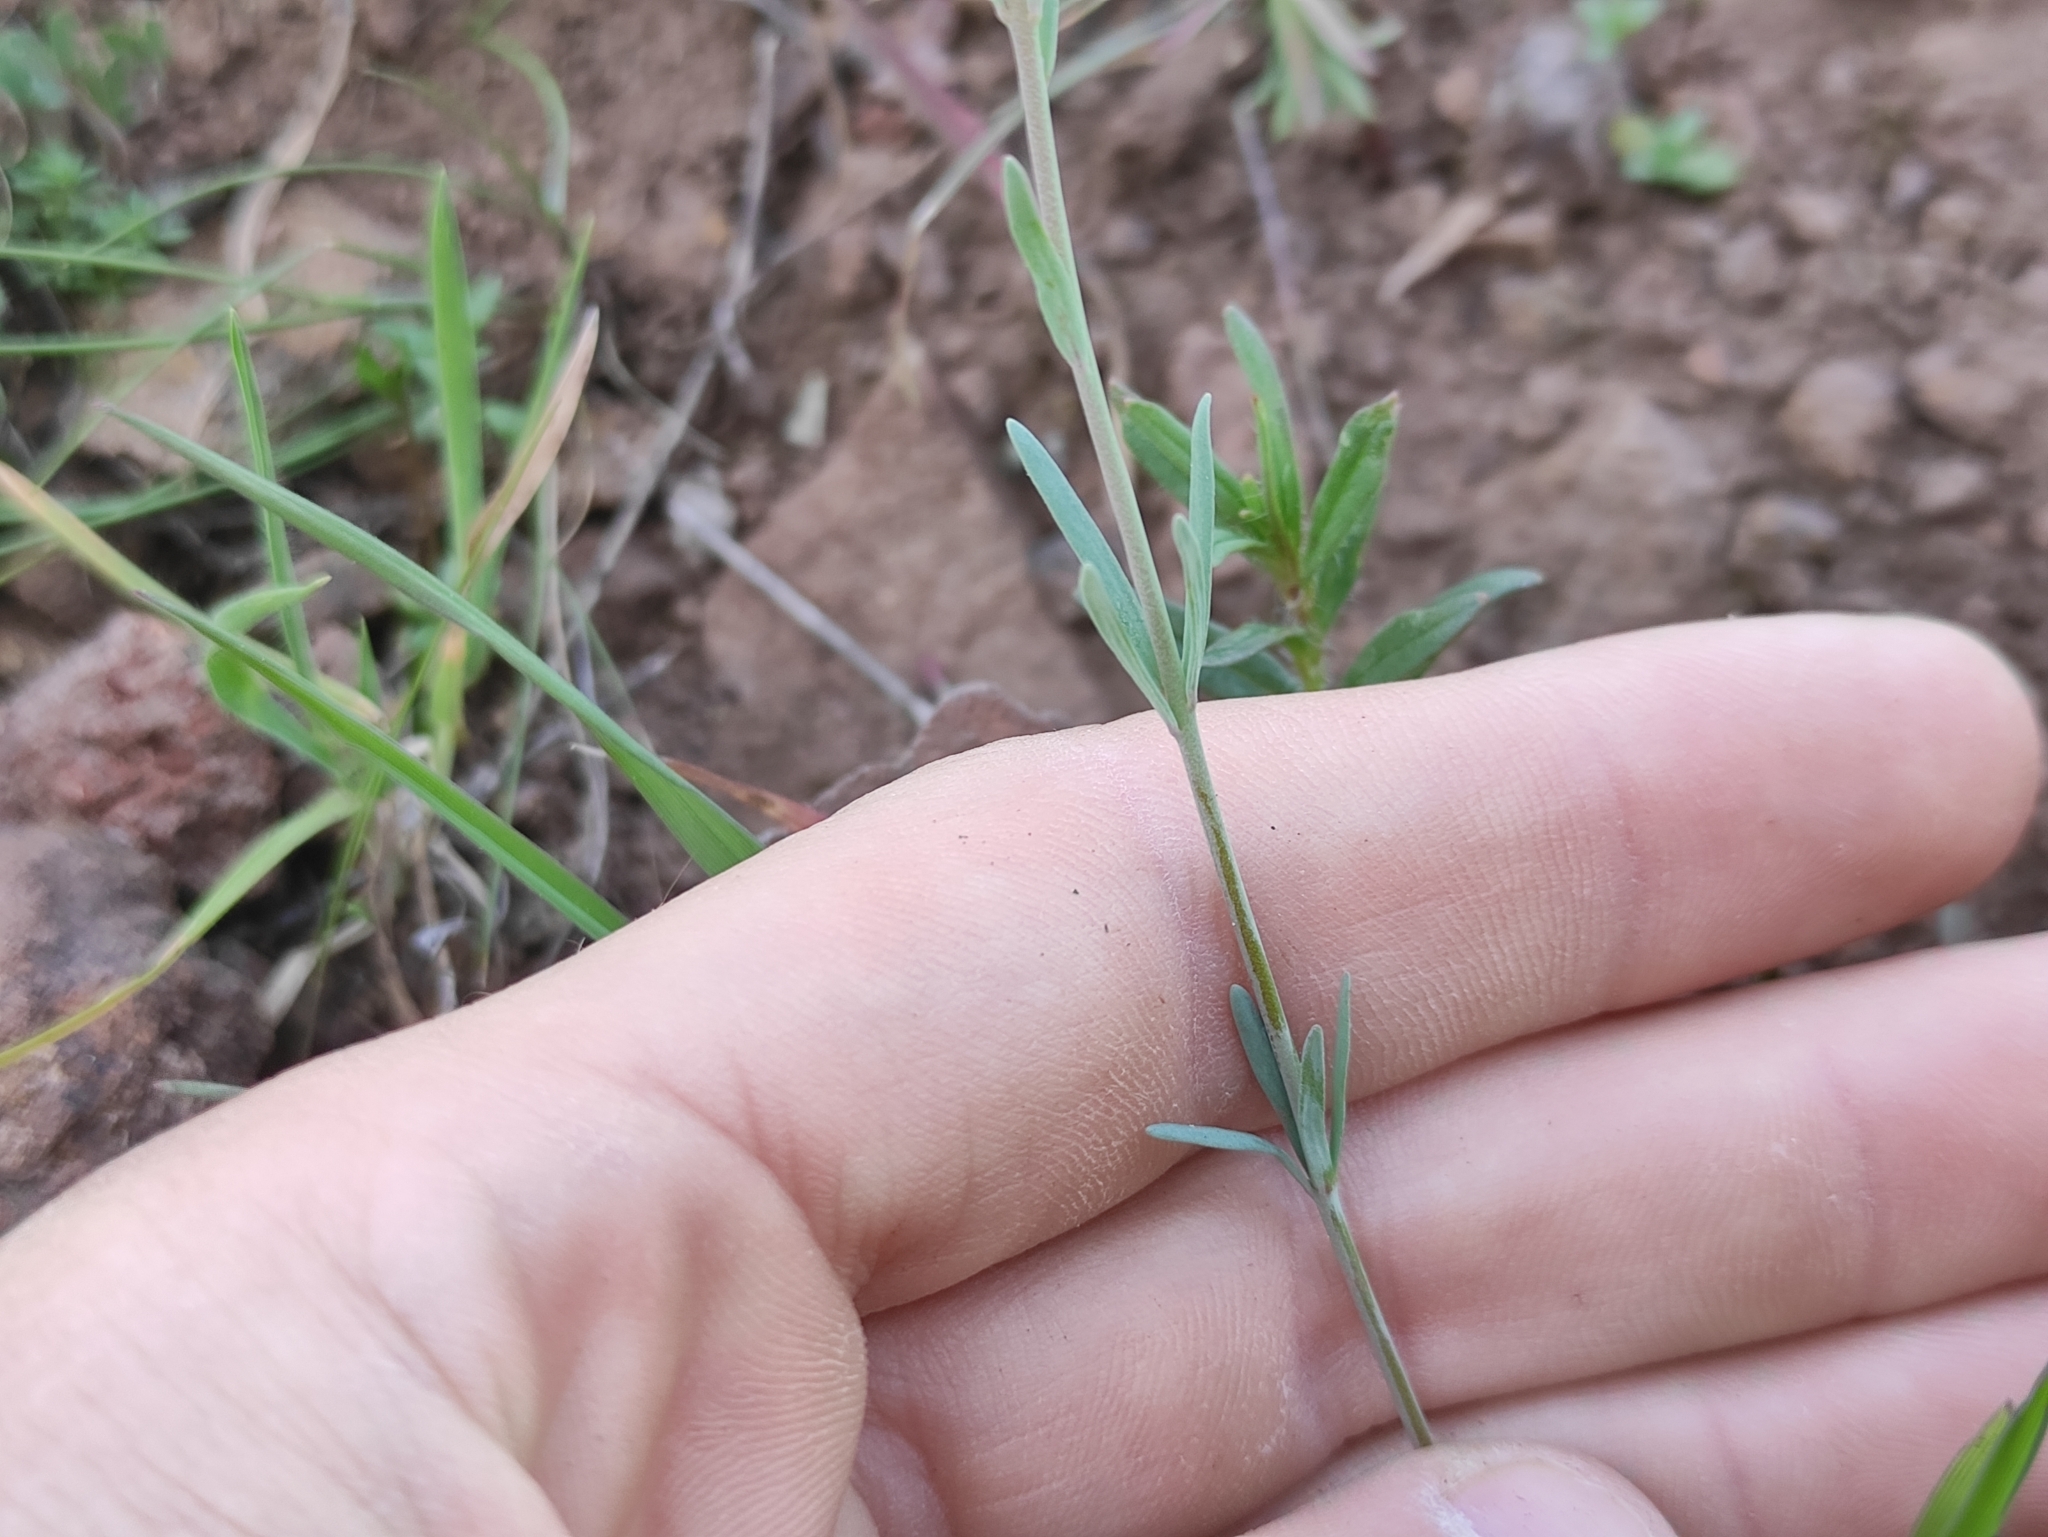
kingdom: Plantae
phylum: Tracheophyta
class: Magnoliopsida
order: Lamiales
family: Plantaginaceae
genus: Linaria
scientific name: Linaria arvensis
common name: Corn toadflax
